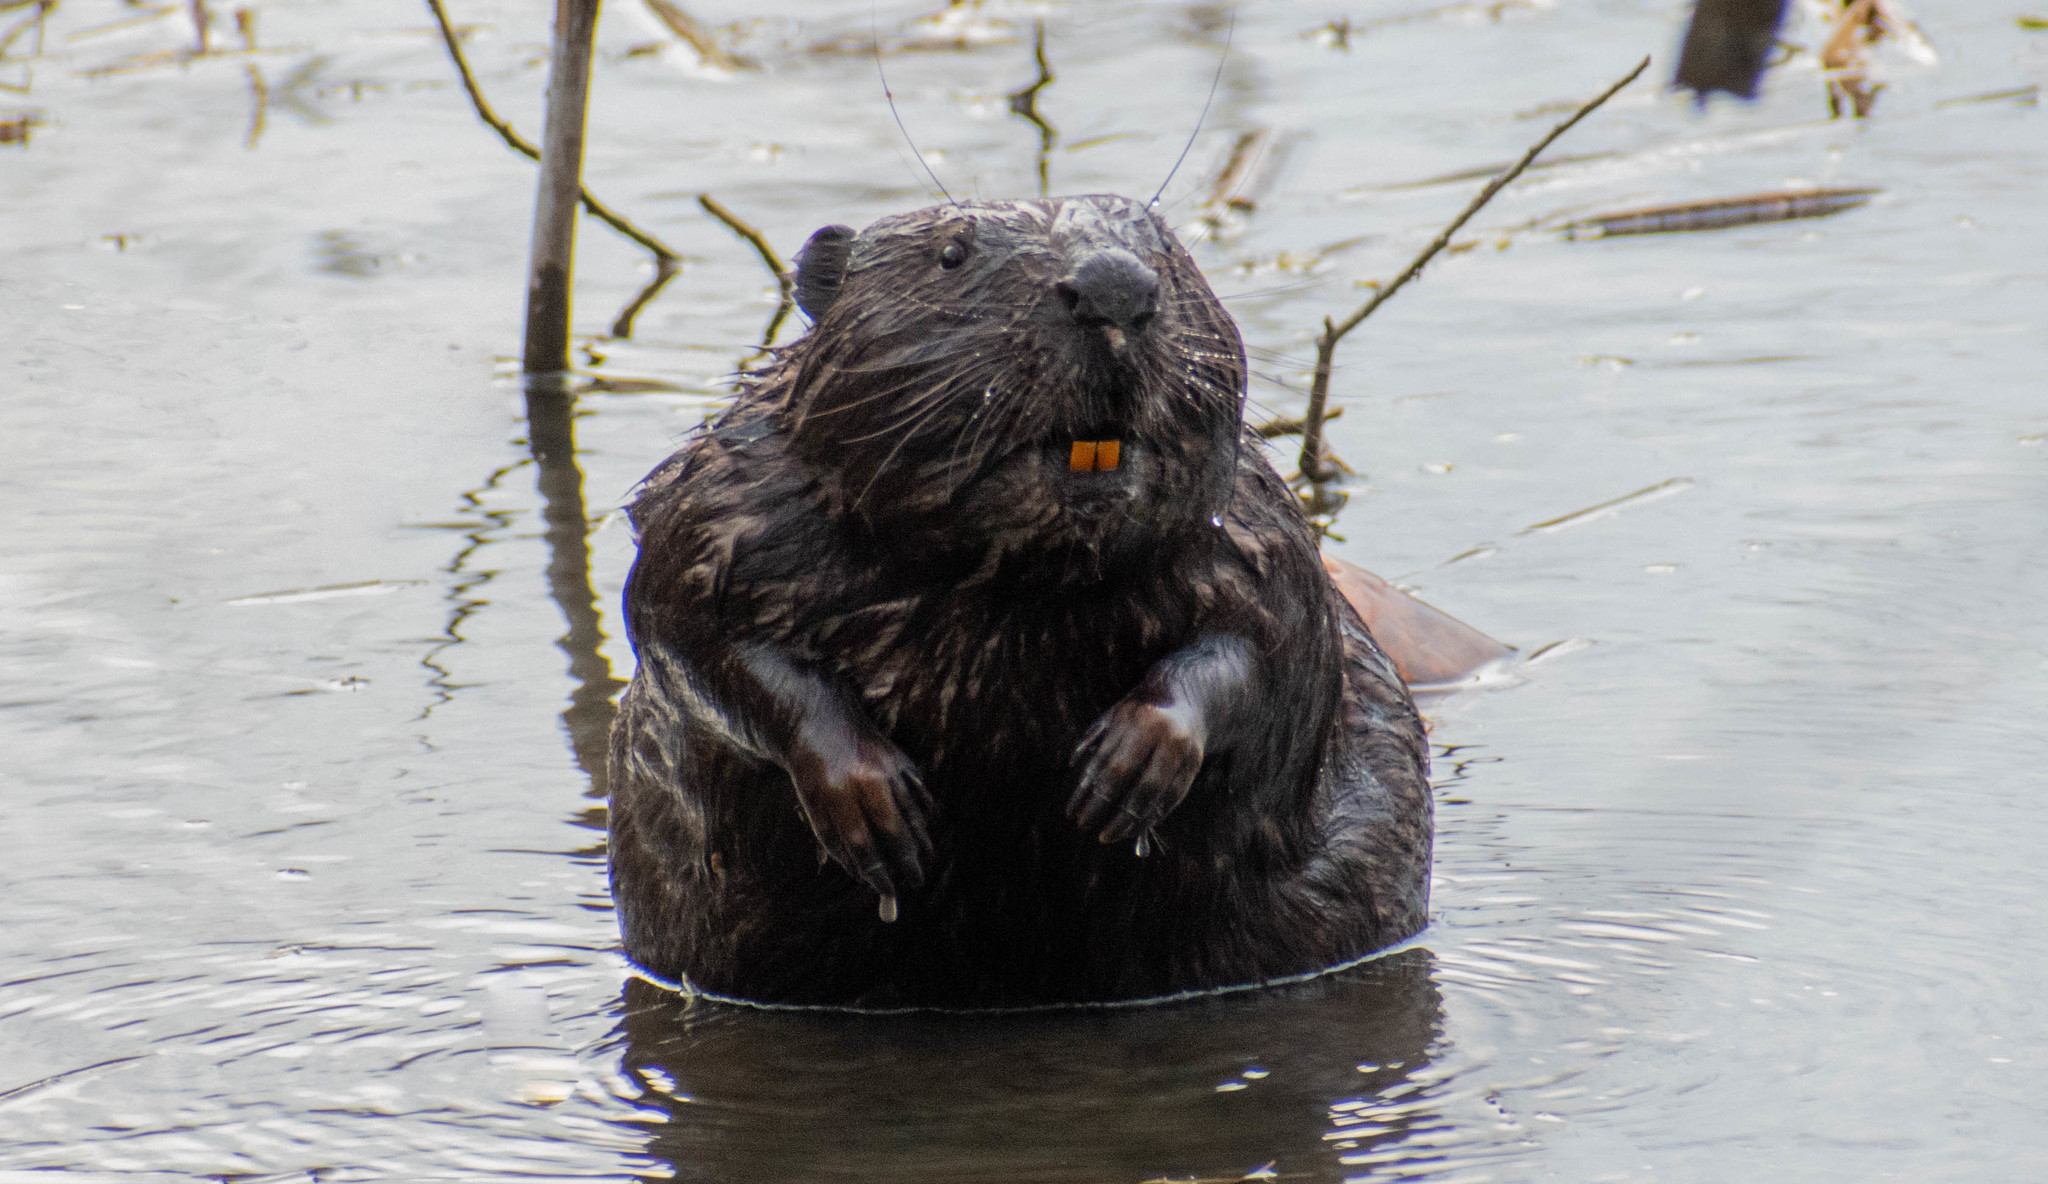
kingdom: Animalia
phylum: Chordata
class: Mammalia
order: Rodentia
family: Castoridae
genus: Castor
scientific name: Castor fiber
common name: Eurasian beaver
